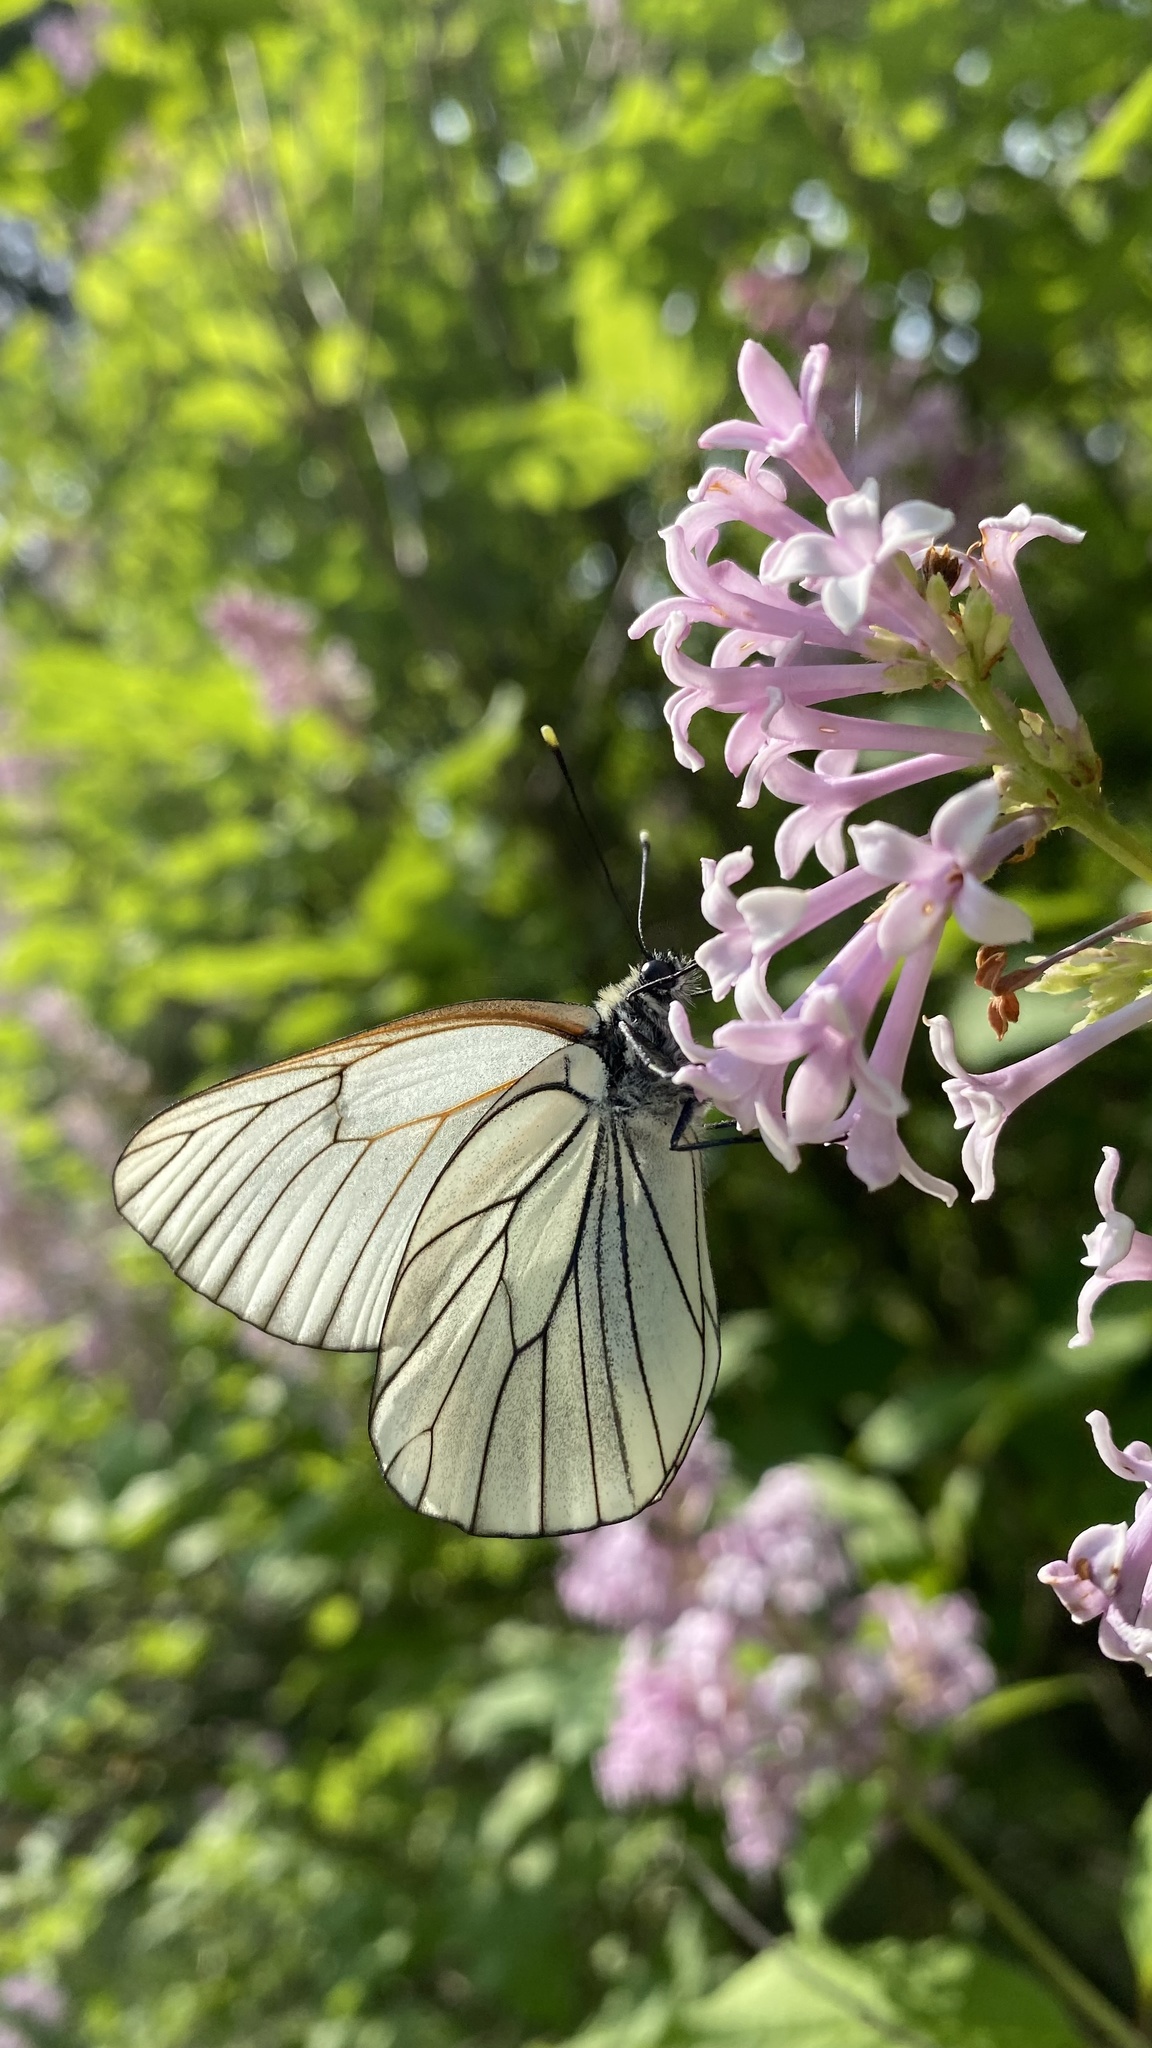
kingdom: Animalia
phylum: Arthropoda
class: Insecta
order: Lepidoptera
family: Pieridae
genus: Aporia
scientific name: Aporia crataegi
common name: Black-veined white
